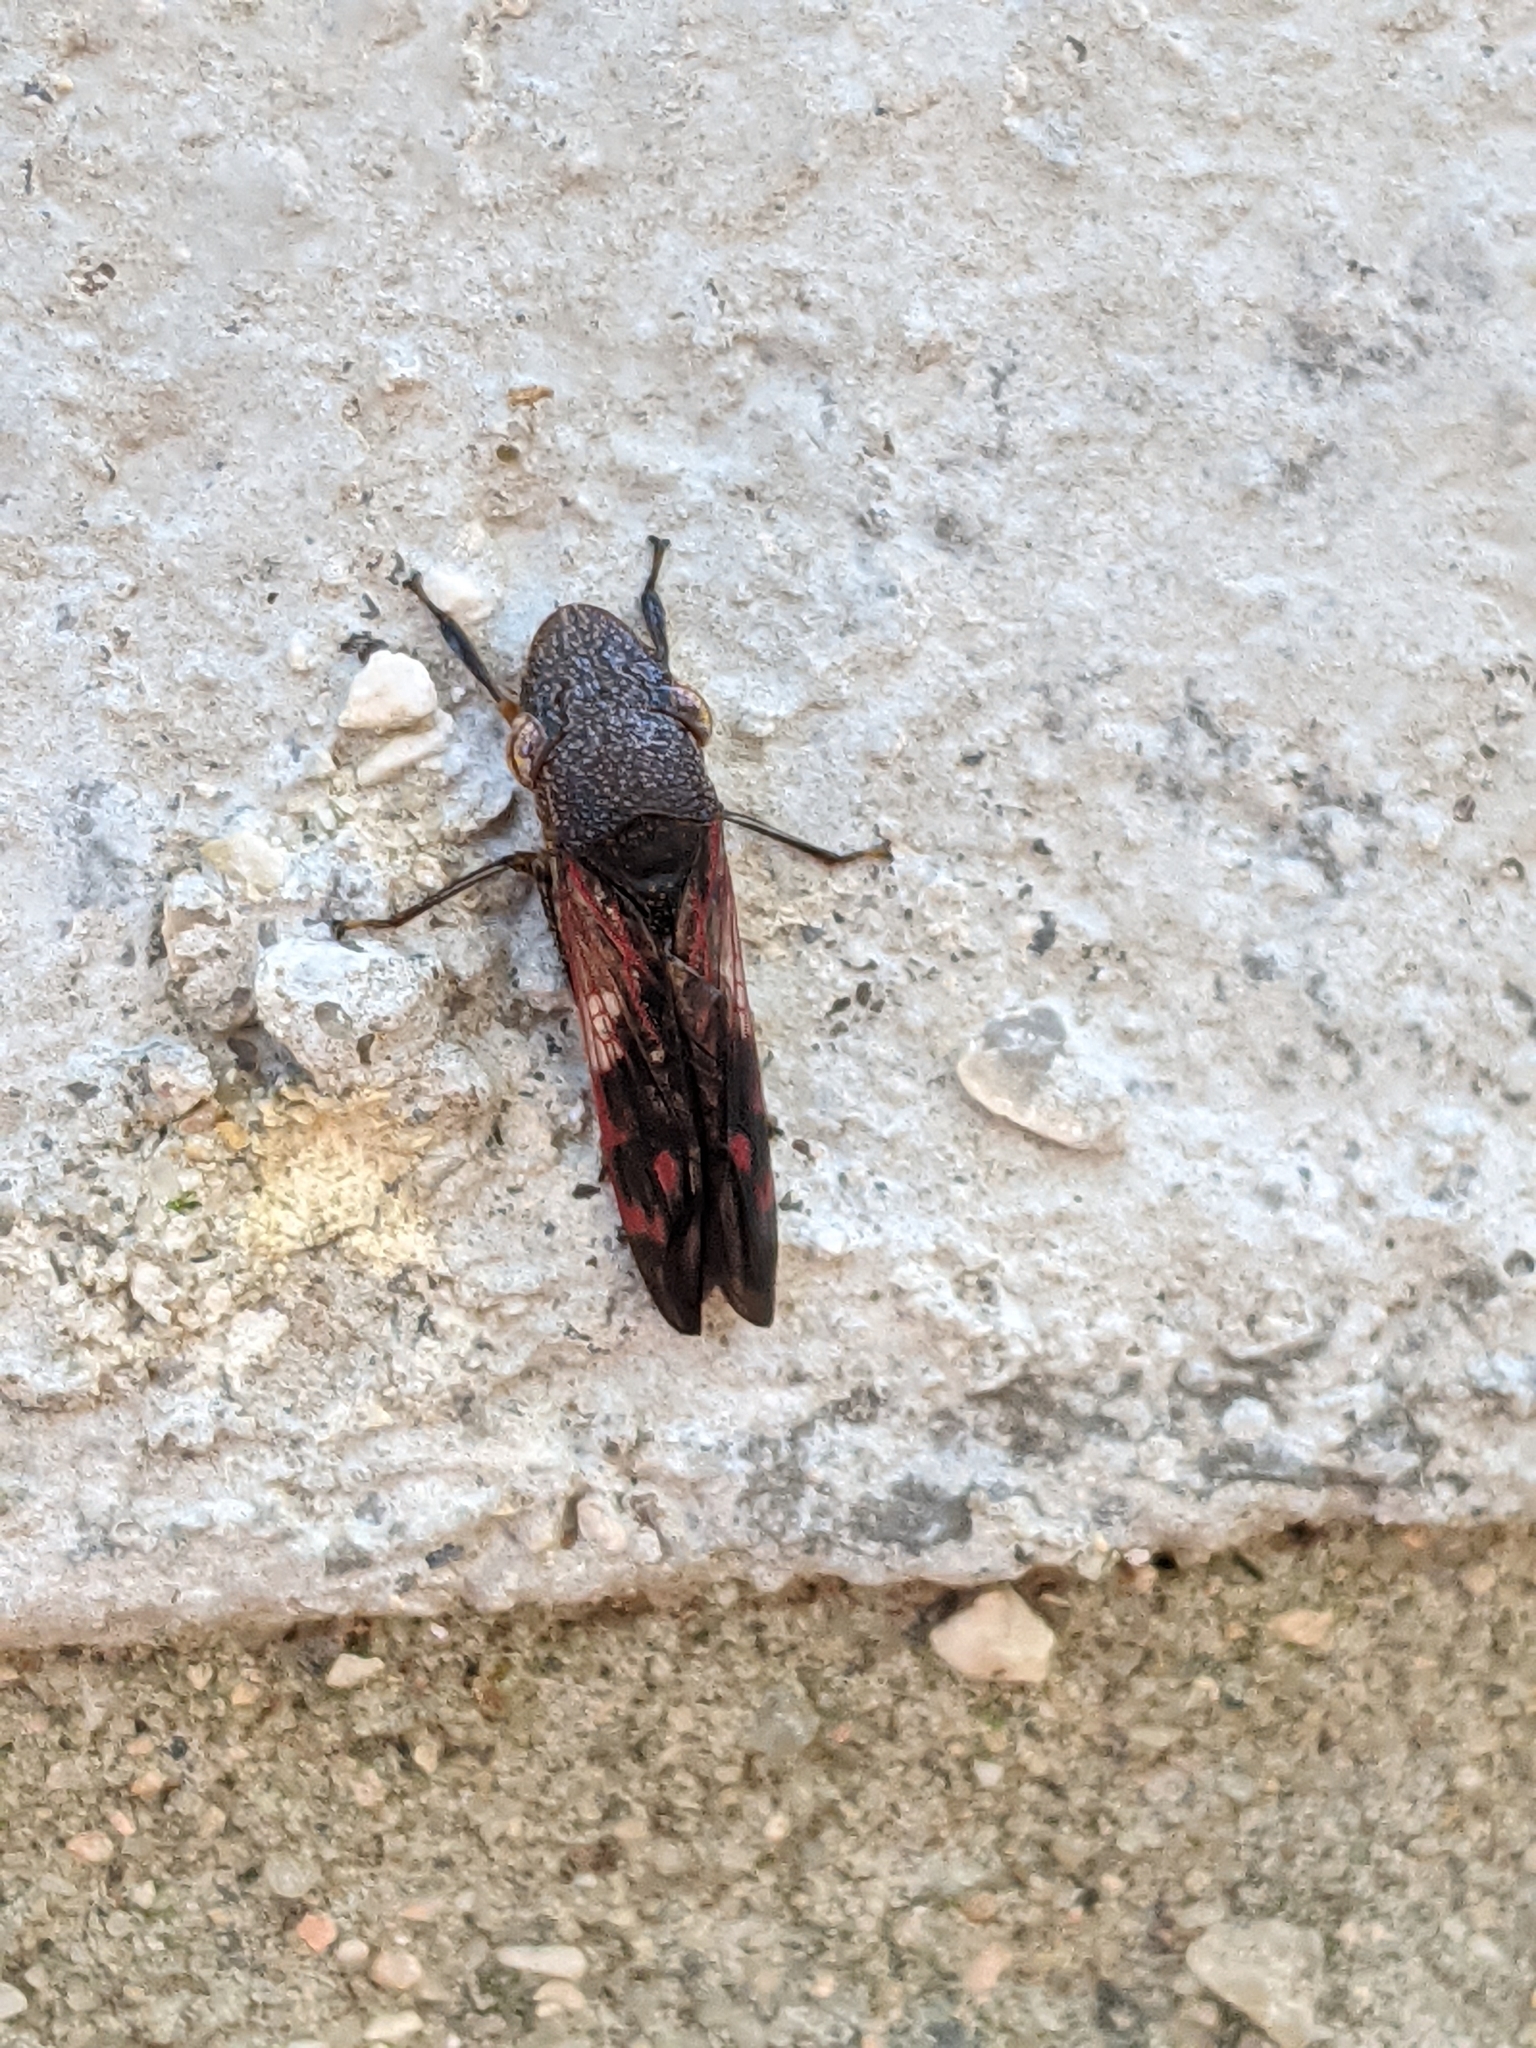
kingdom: Animalia
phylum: Arthropoda
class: Insecta
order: Hemiptera
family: Cicadellidae
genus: Homalodisca
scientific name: Homalodisca vitripennis
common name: Glassy-winged sharpshooter
